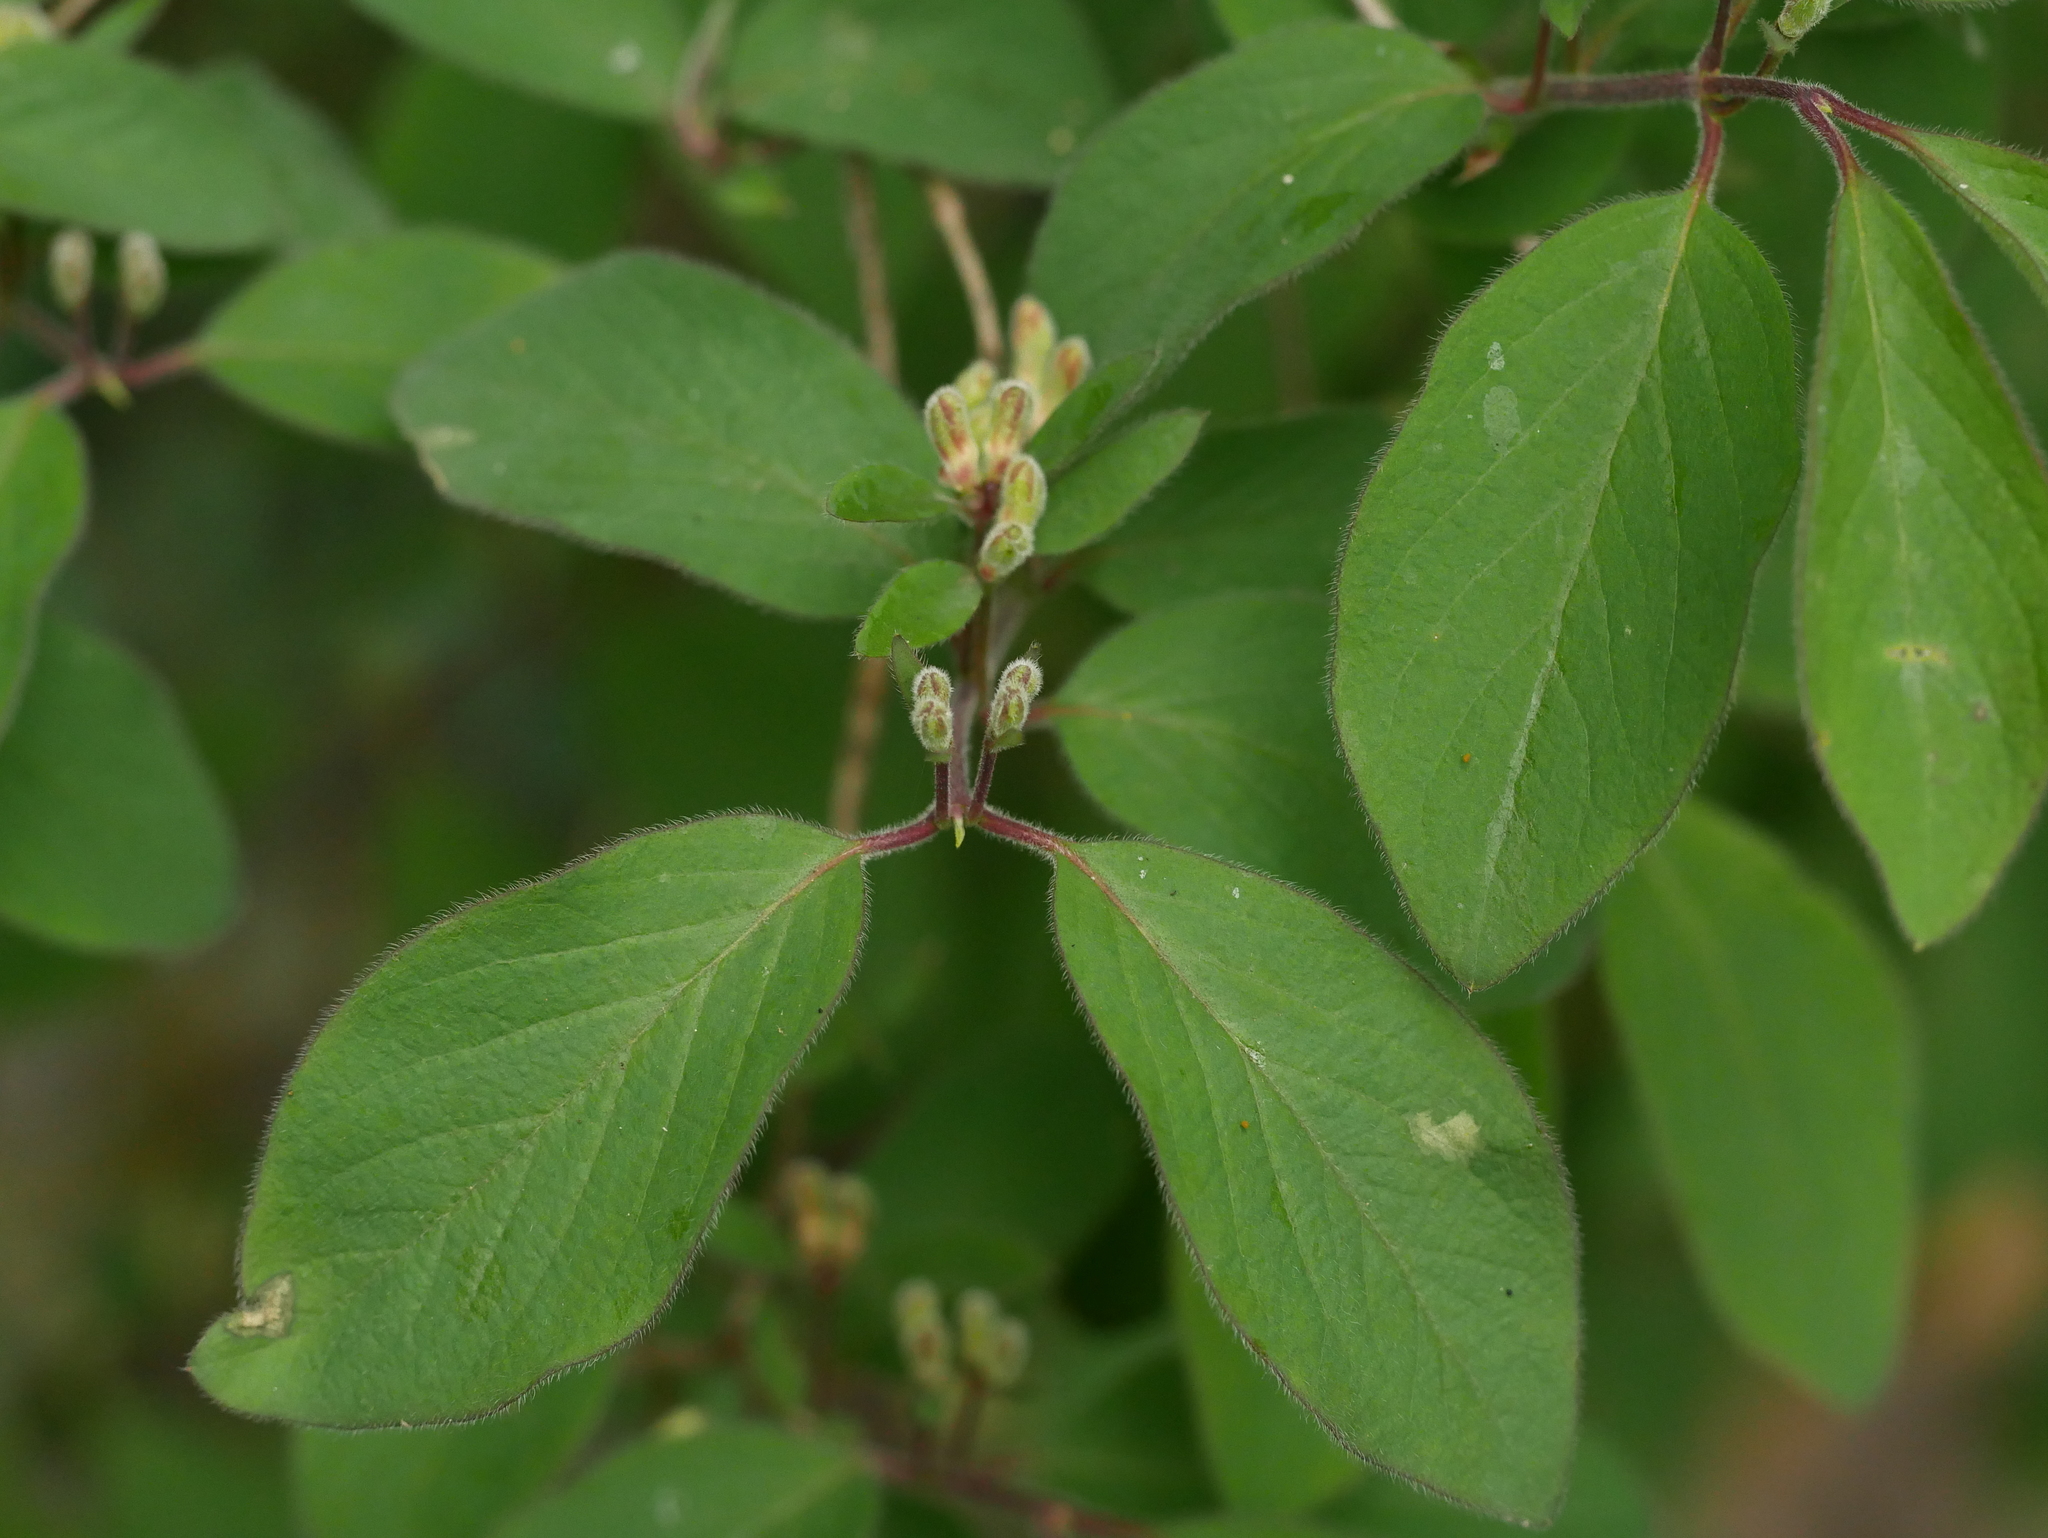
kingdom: Plantae
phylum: Tracheophyta
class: Magnoliopsida
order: Dipsacales
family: Caprifoliaceae
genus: Lonicera
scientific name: Lonicera xylosteum
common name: Fly honeysuckle
